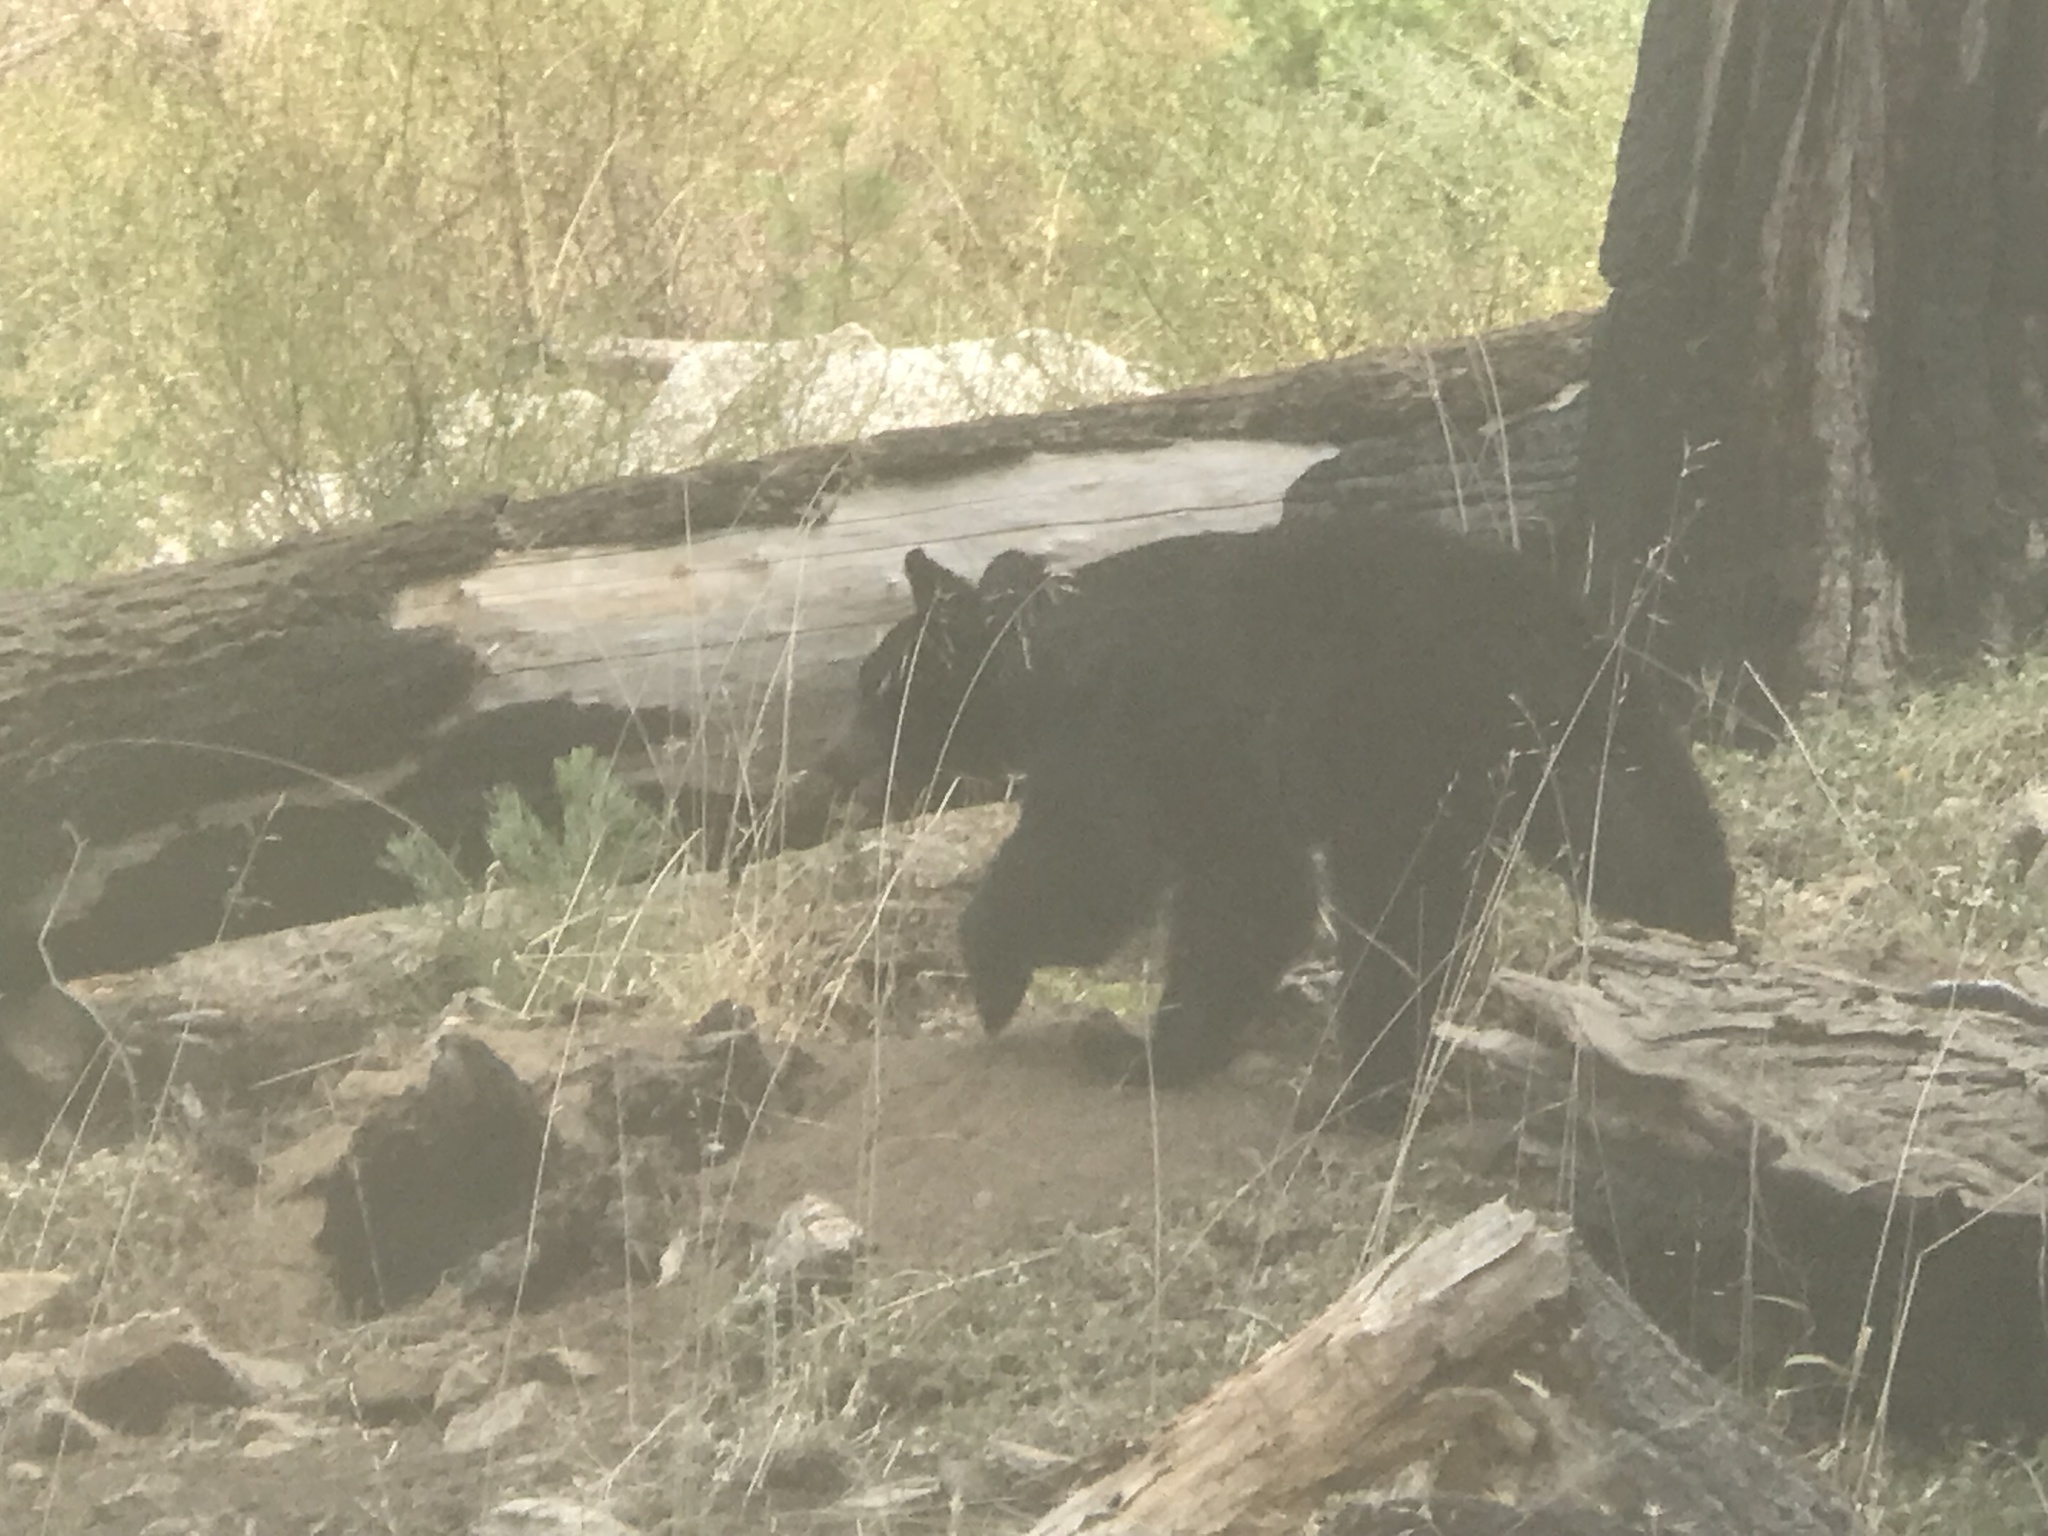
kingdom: Animalia
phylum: Chordata
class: Mammalia
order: Carnivora
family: Ursidae
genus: Ursus
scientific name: Ursus americanus
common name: American black bear
